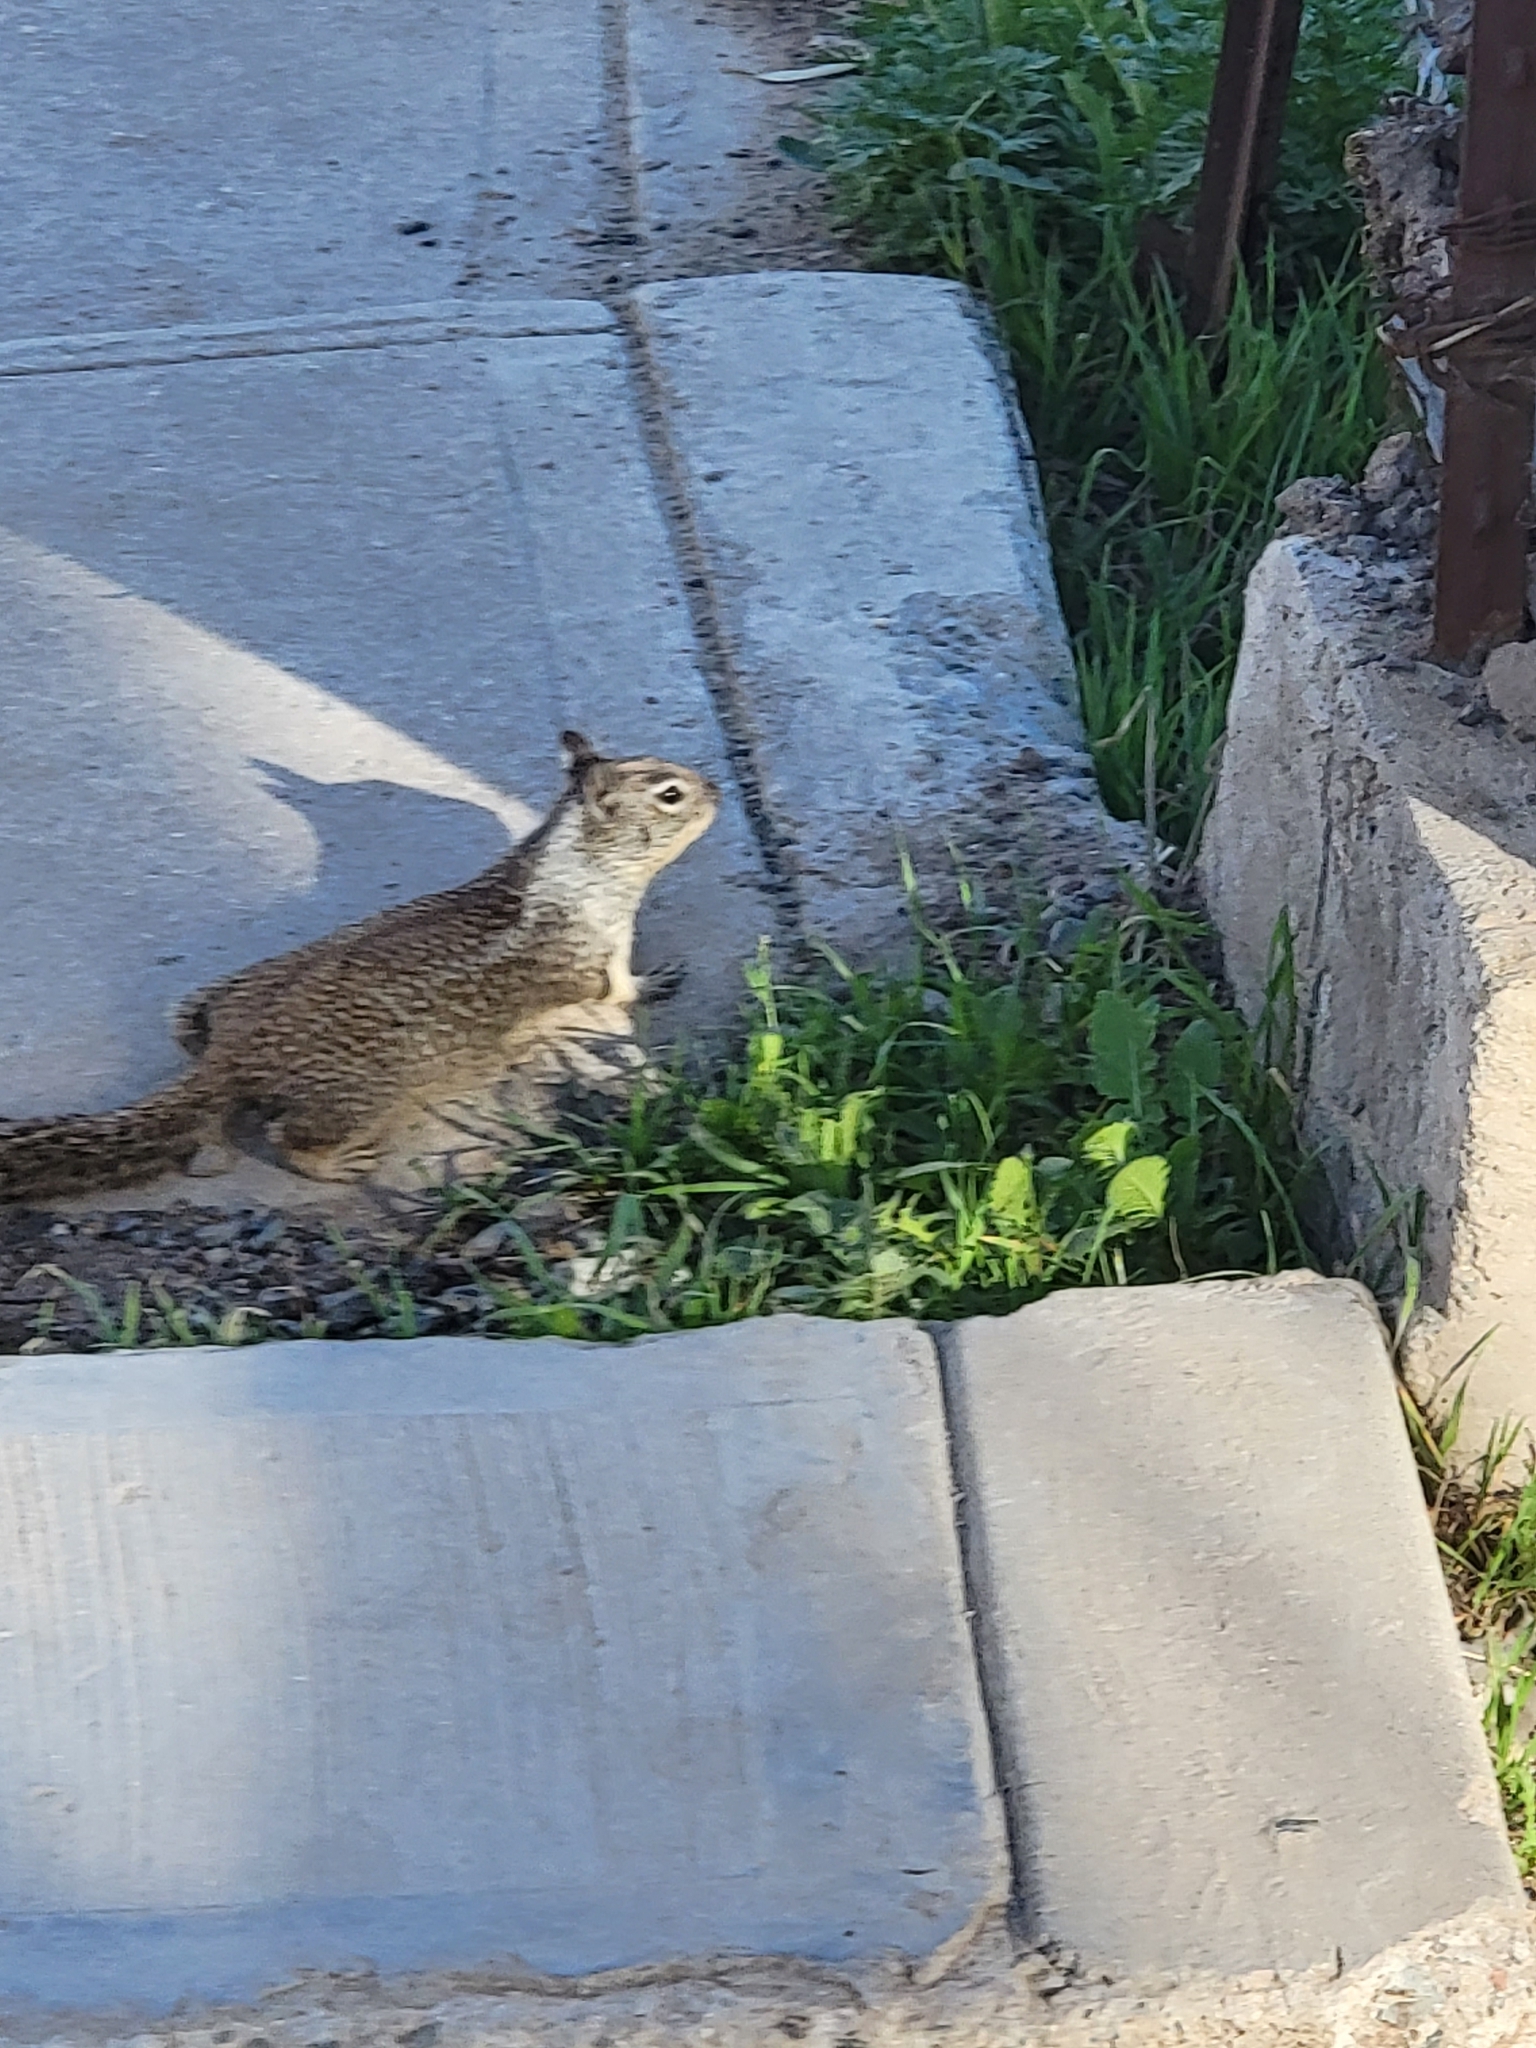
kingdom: Animalia
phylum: Chordata
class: Mammalia
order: Rodentia
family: Sciuridae
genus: Otospermophilus
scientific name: Otospermophilus beecheyi
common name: California ground squirrel
